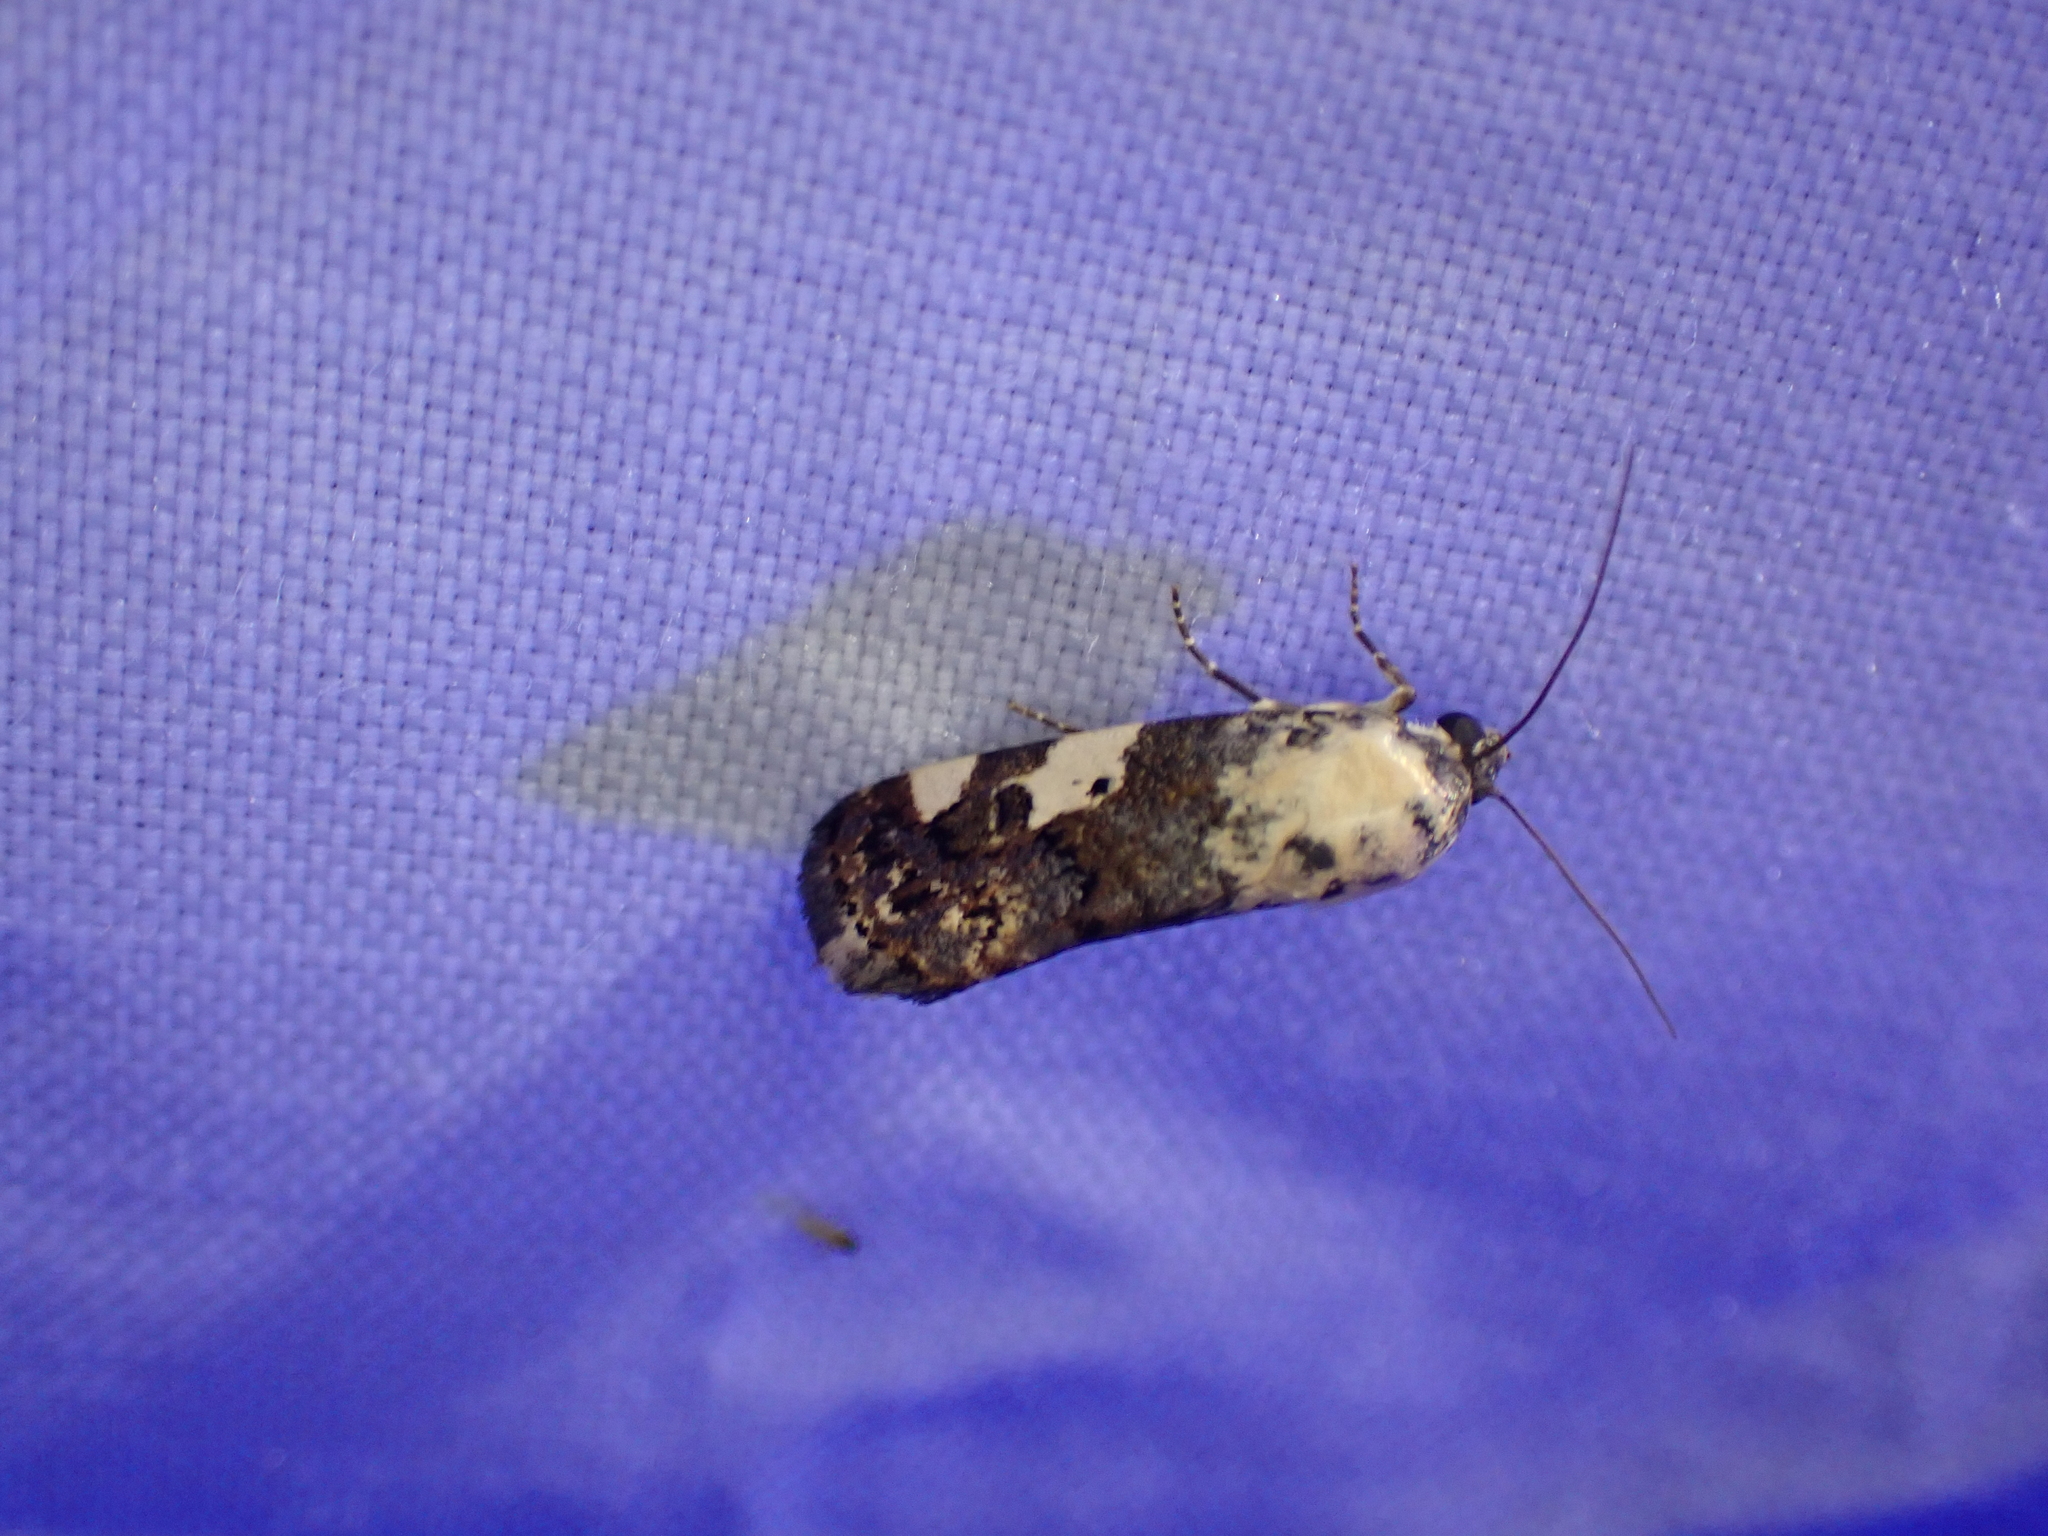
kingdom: Animalia
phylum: Arthropoda
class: Insecta
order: Lepidoptera
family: Noctuidae
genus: Acontia
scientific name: Acontia aprica
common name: Nun
